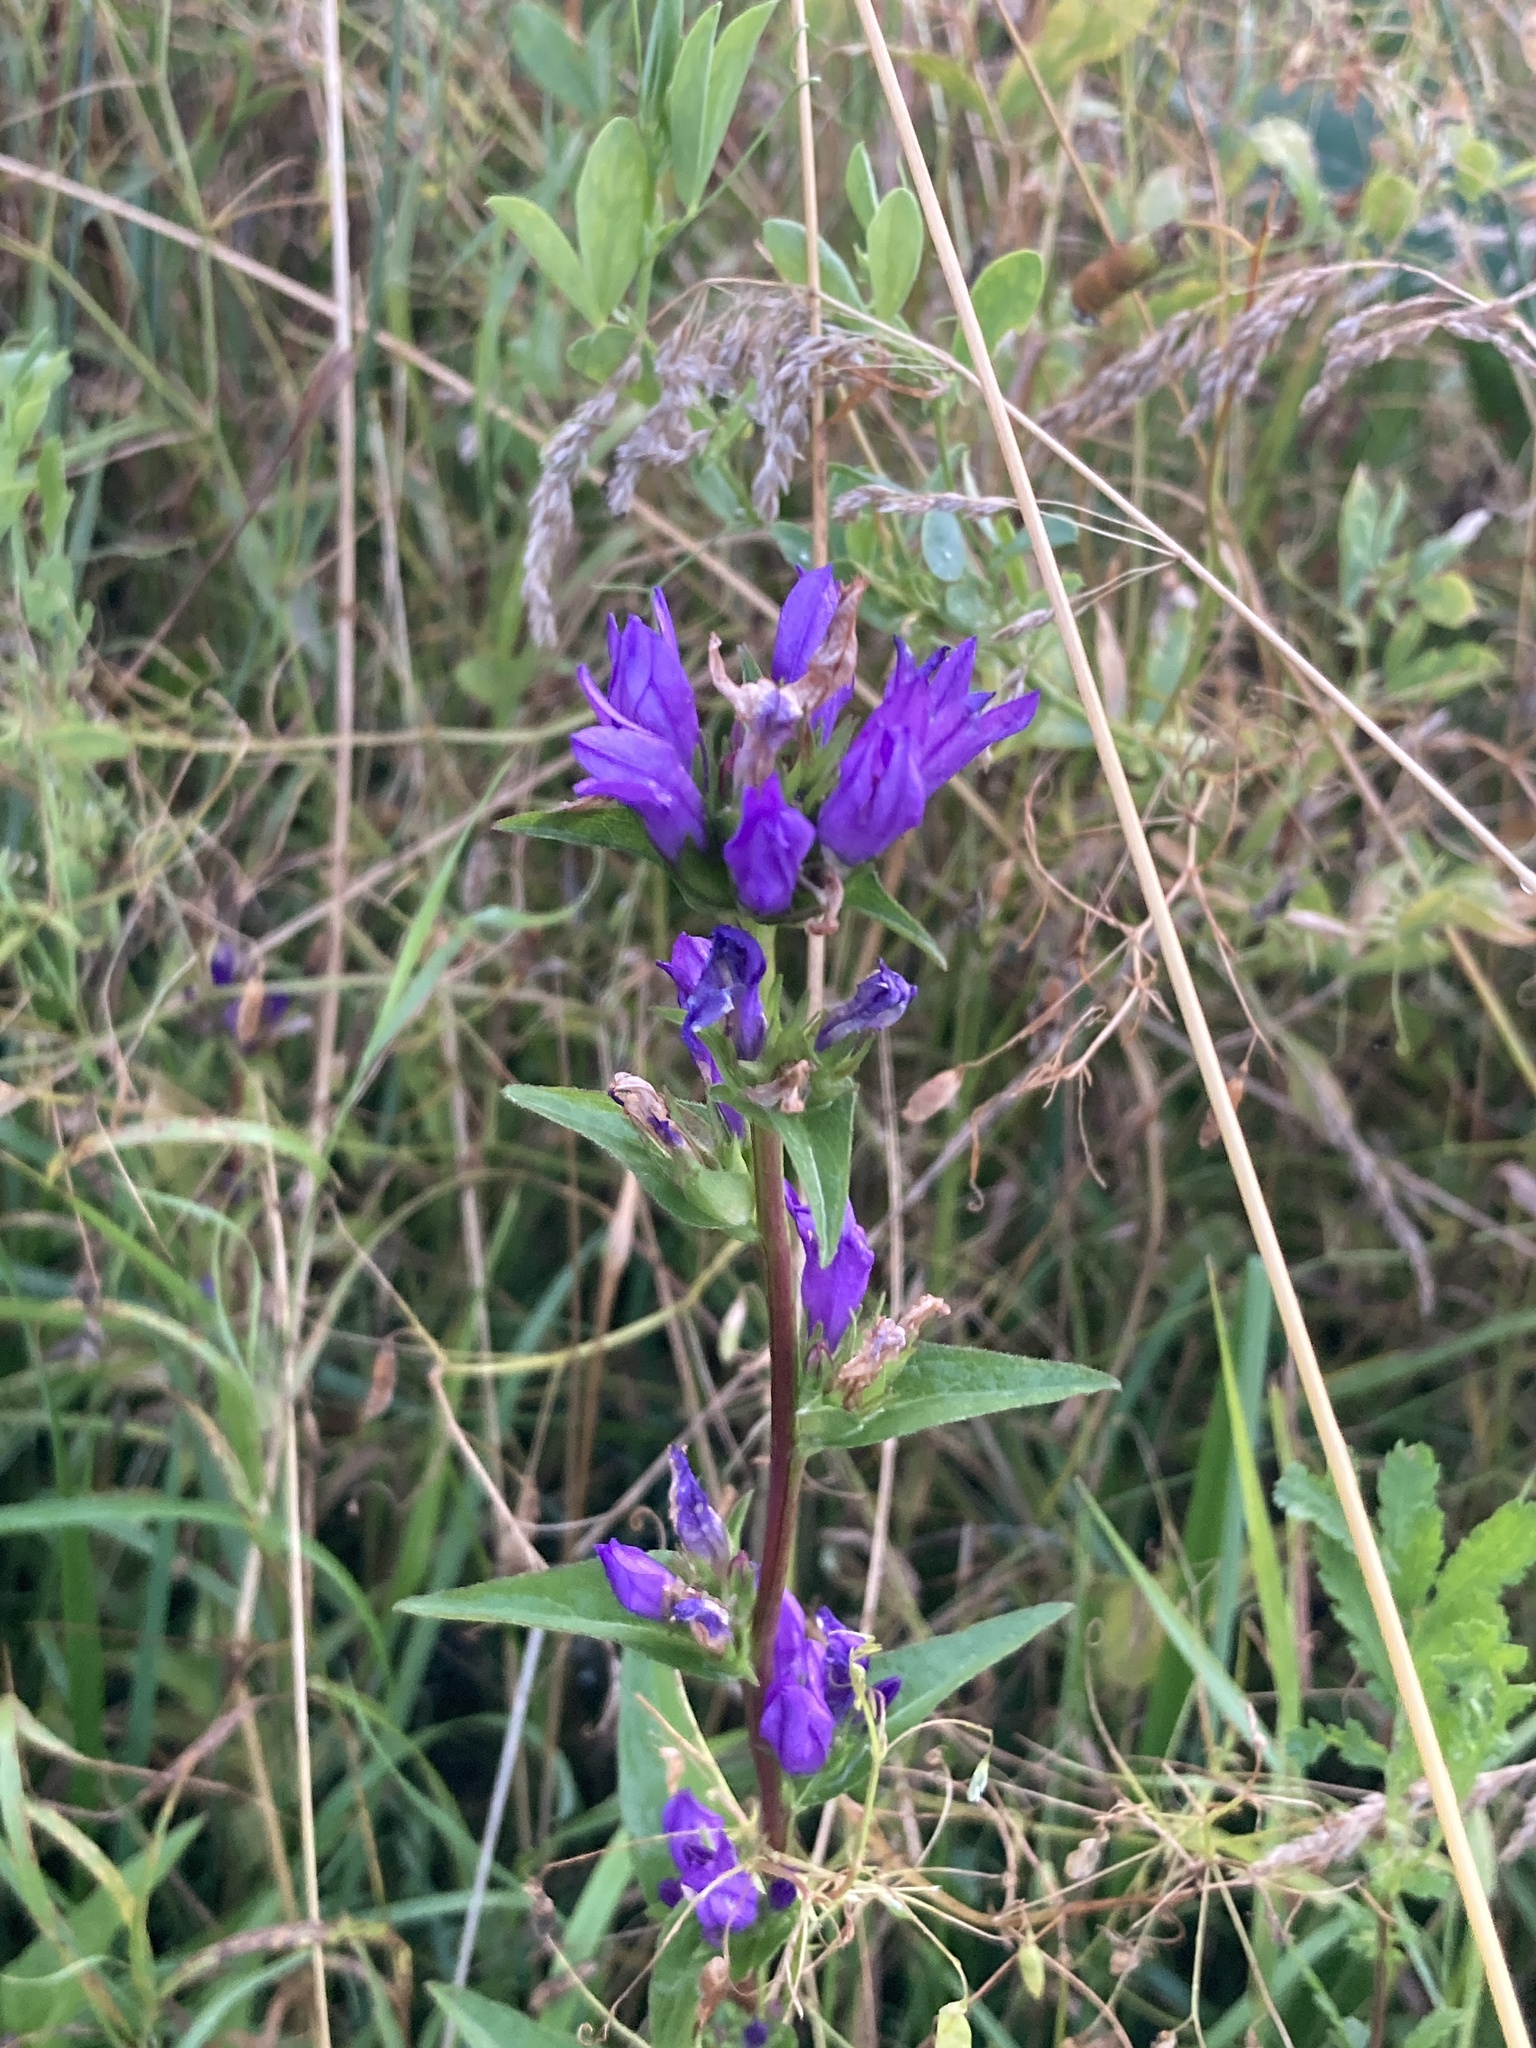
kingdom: Plantae
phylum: Tracheophyta
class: Magnoliopsida
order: Asterales
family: Campanulaceae
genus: Campanula
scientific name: Campanula glomerata
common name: Clustered bellflower
